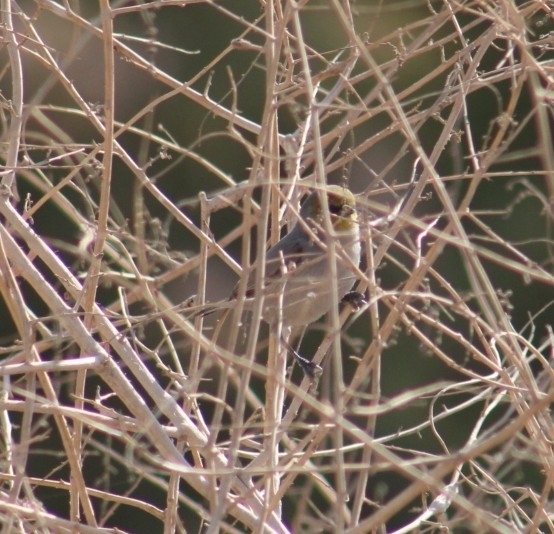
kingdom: Animalia
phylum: Chordata
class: Aves
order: Passeriformes
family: Remizidae
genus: Auriparus
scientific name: Auriparus flaviceps
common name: Verdin
